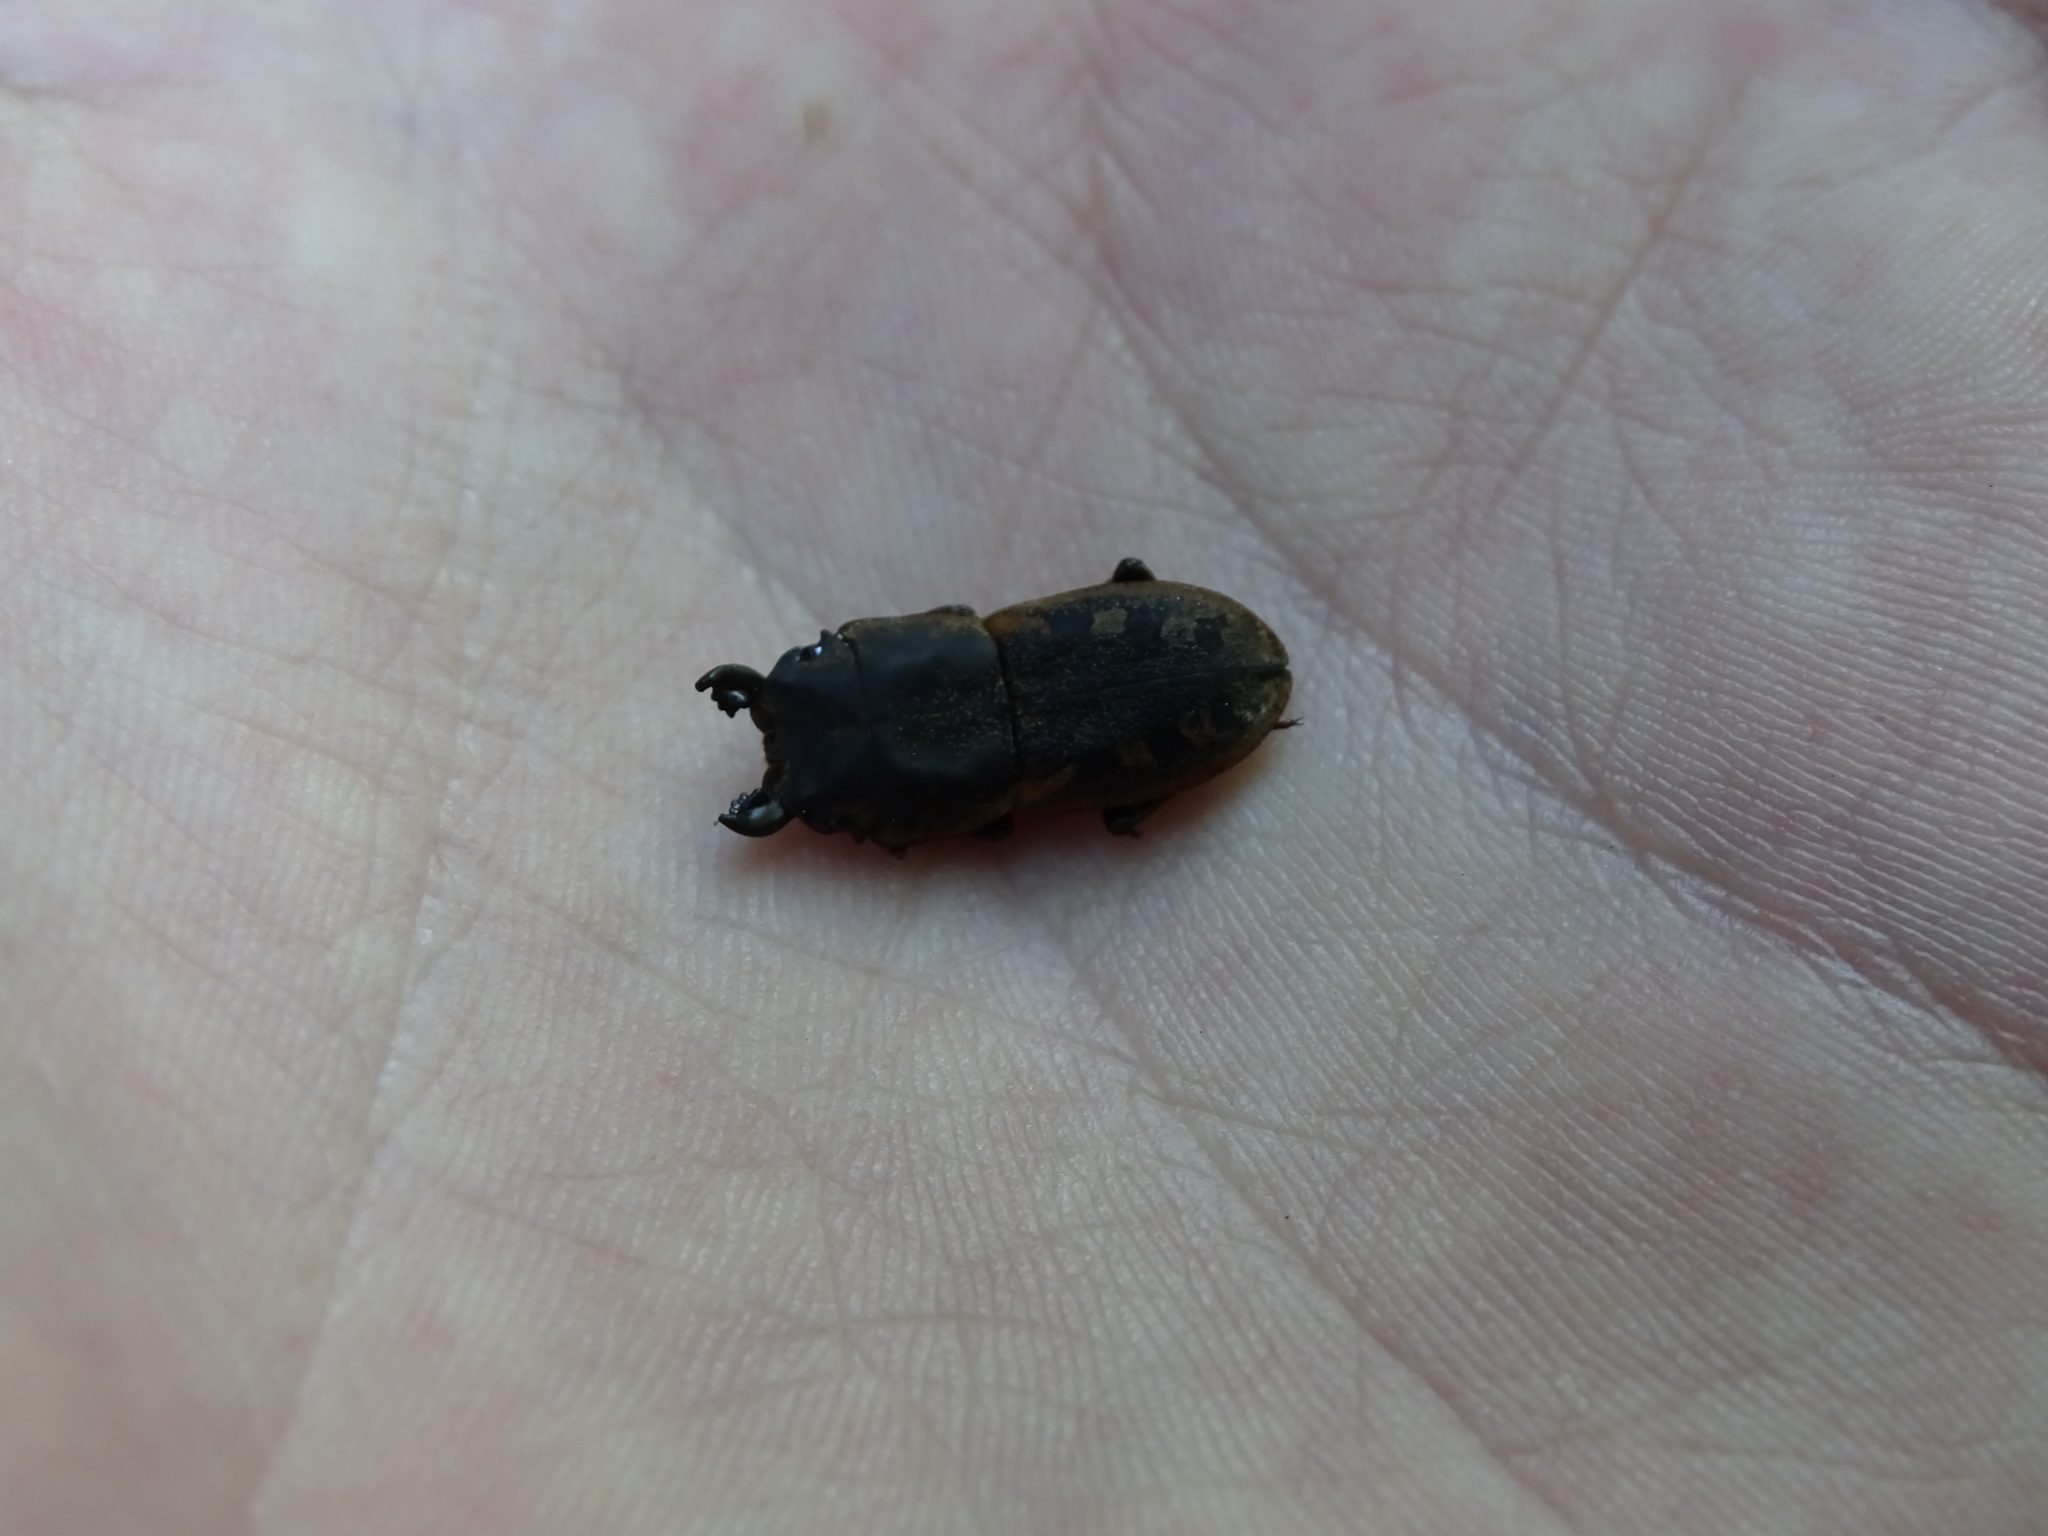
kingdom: Animalia
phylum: Arthropoda
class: Insecta
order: Coleoptera
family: Lucanidae
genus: Erichius
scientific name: Erichius fasciatus
